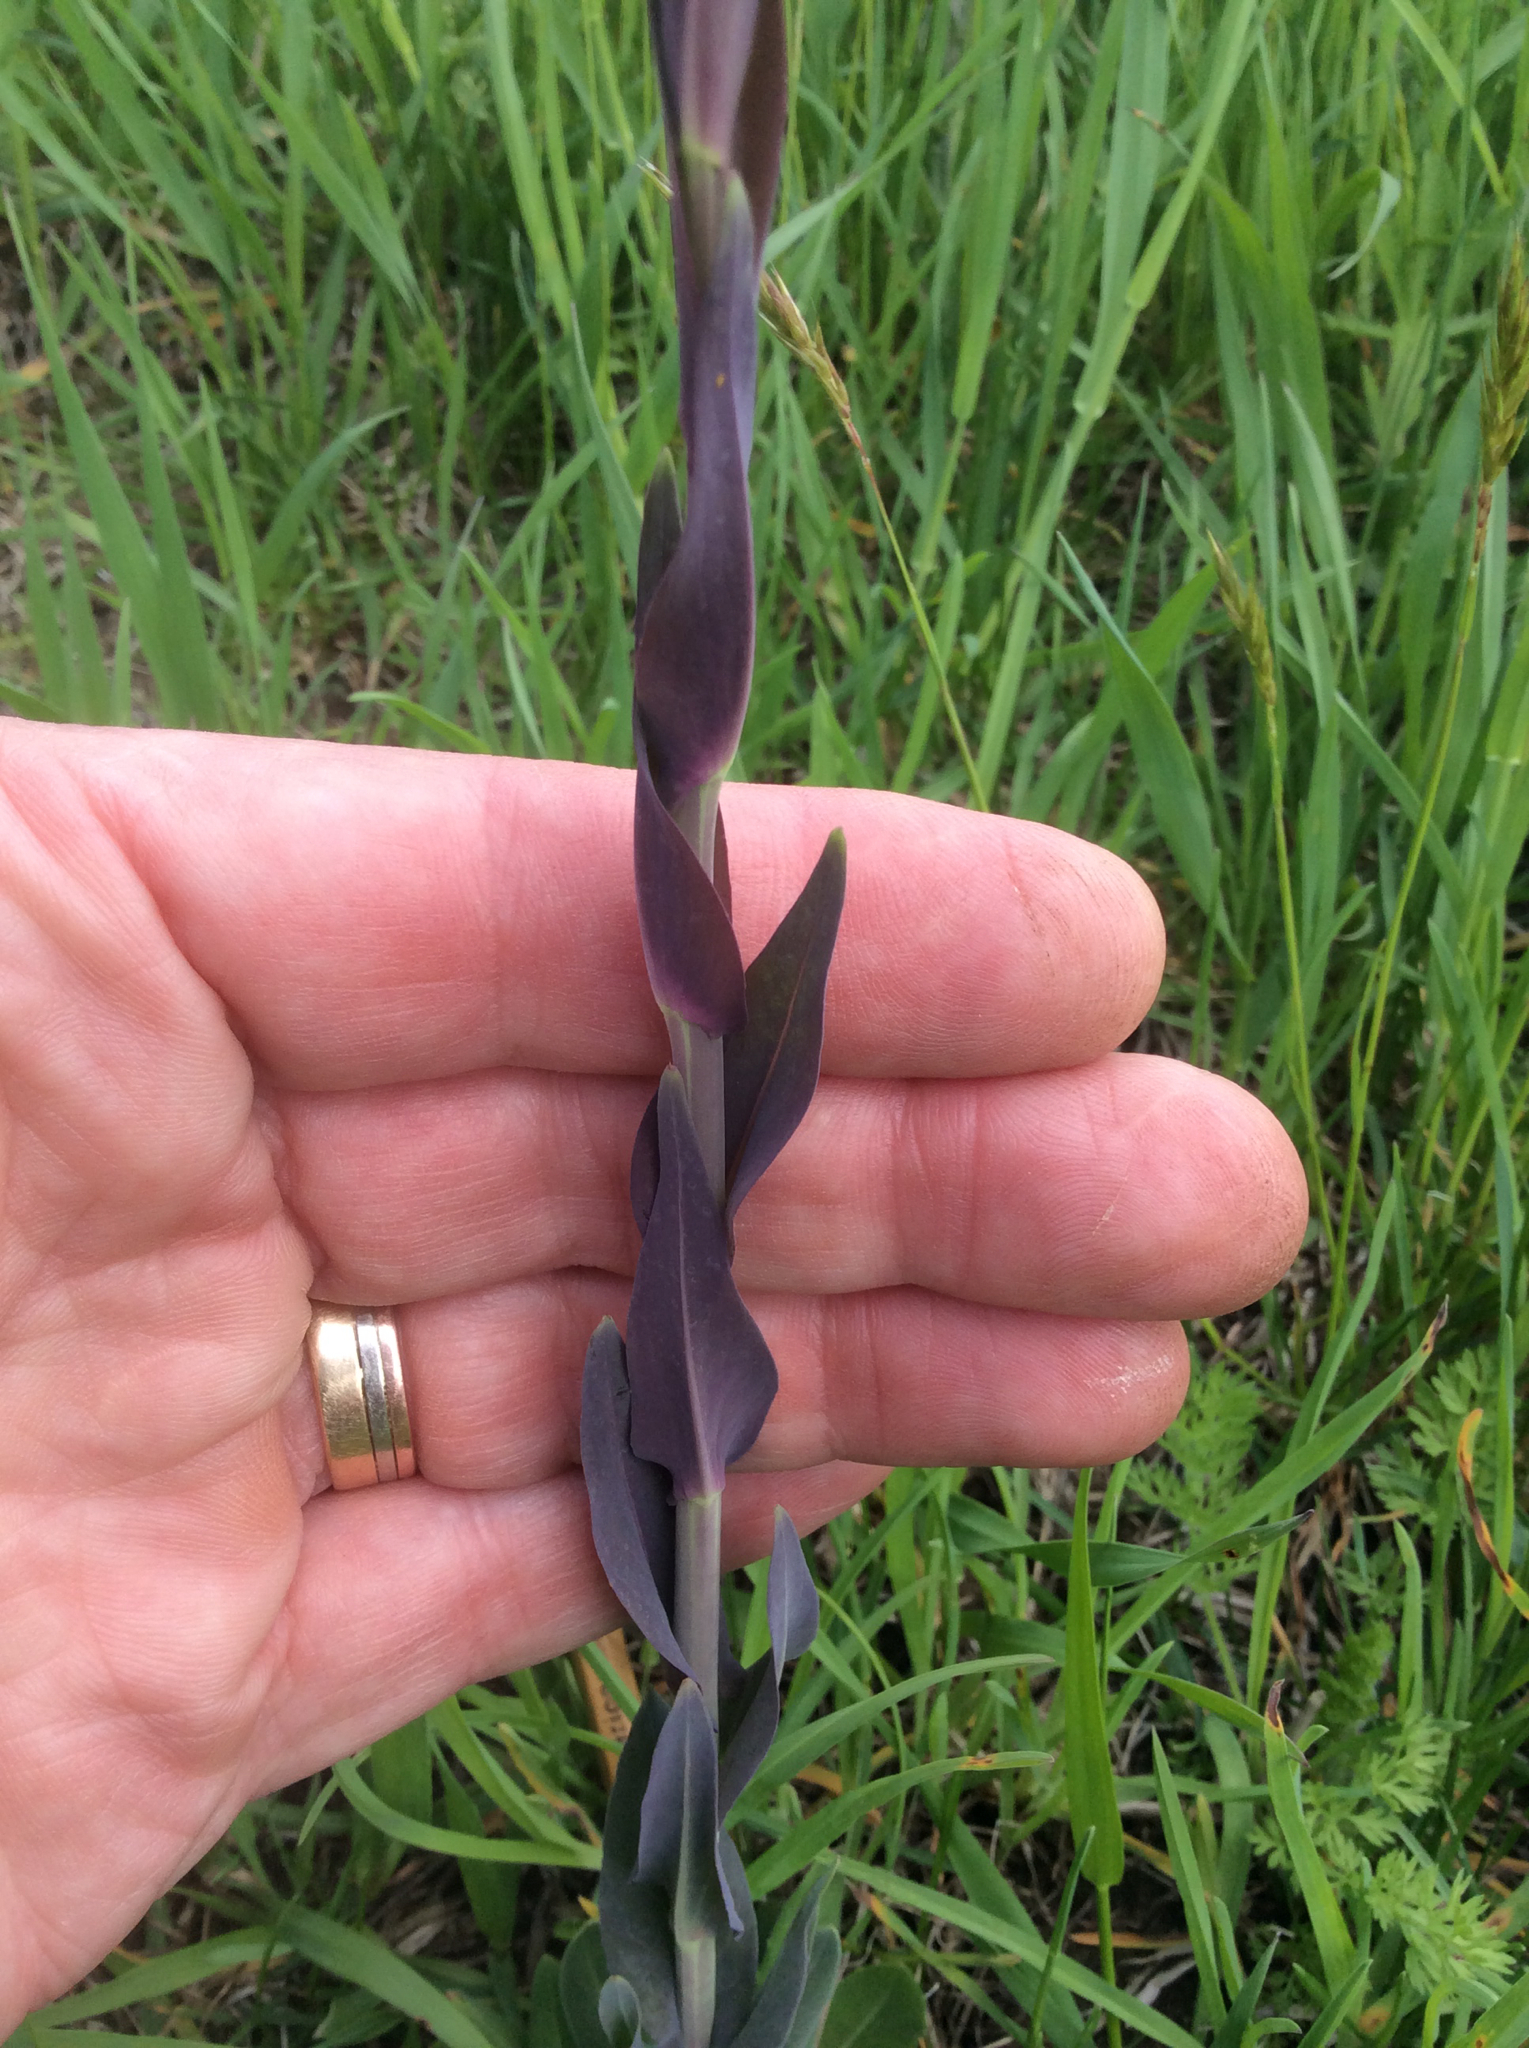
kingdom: Plantae
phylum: Tracheophyta
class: Magnoliopsida
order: Brassicales
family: Brassicaceae
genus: Turritis
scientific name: Turritis glabra
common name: Tower rockcress
